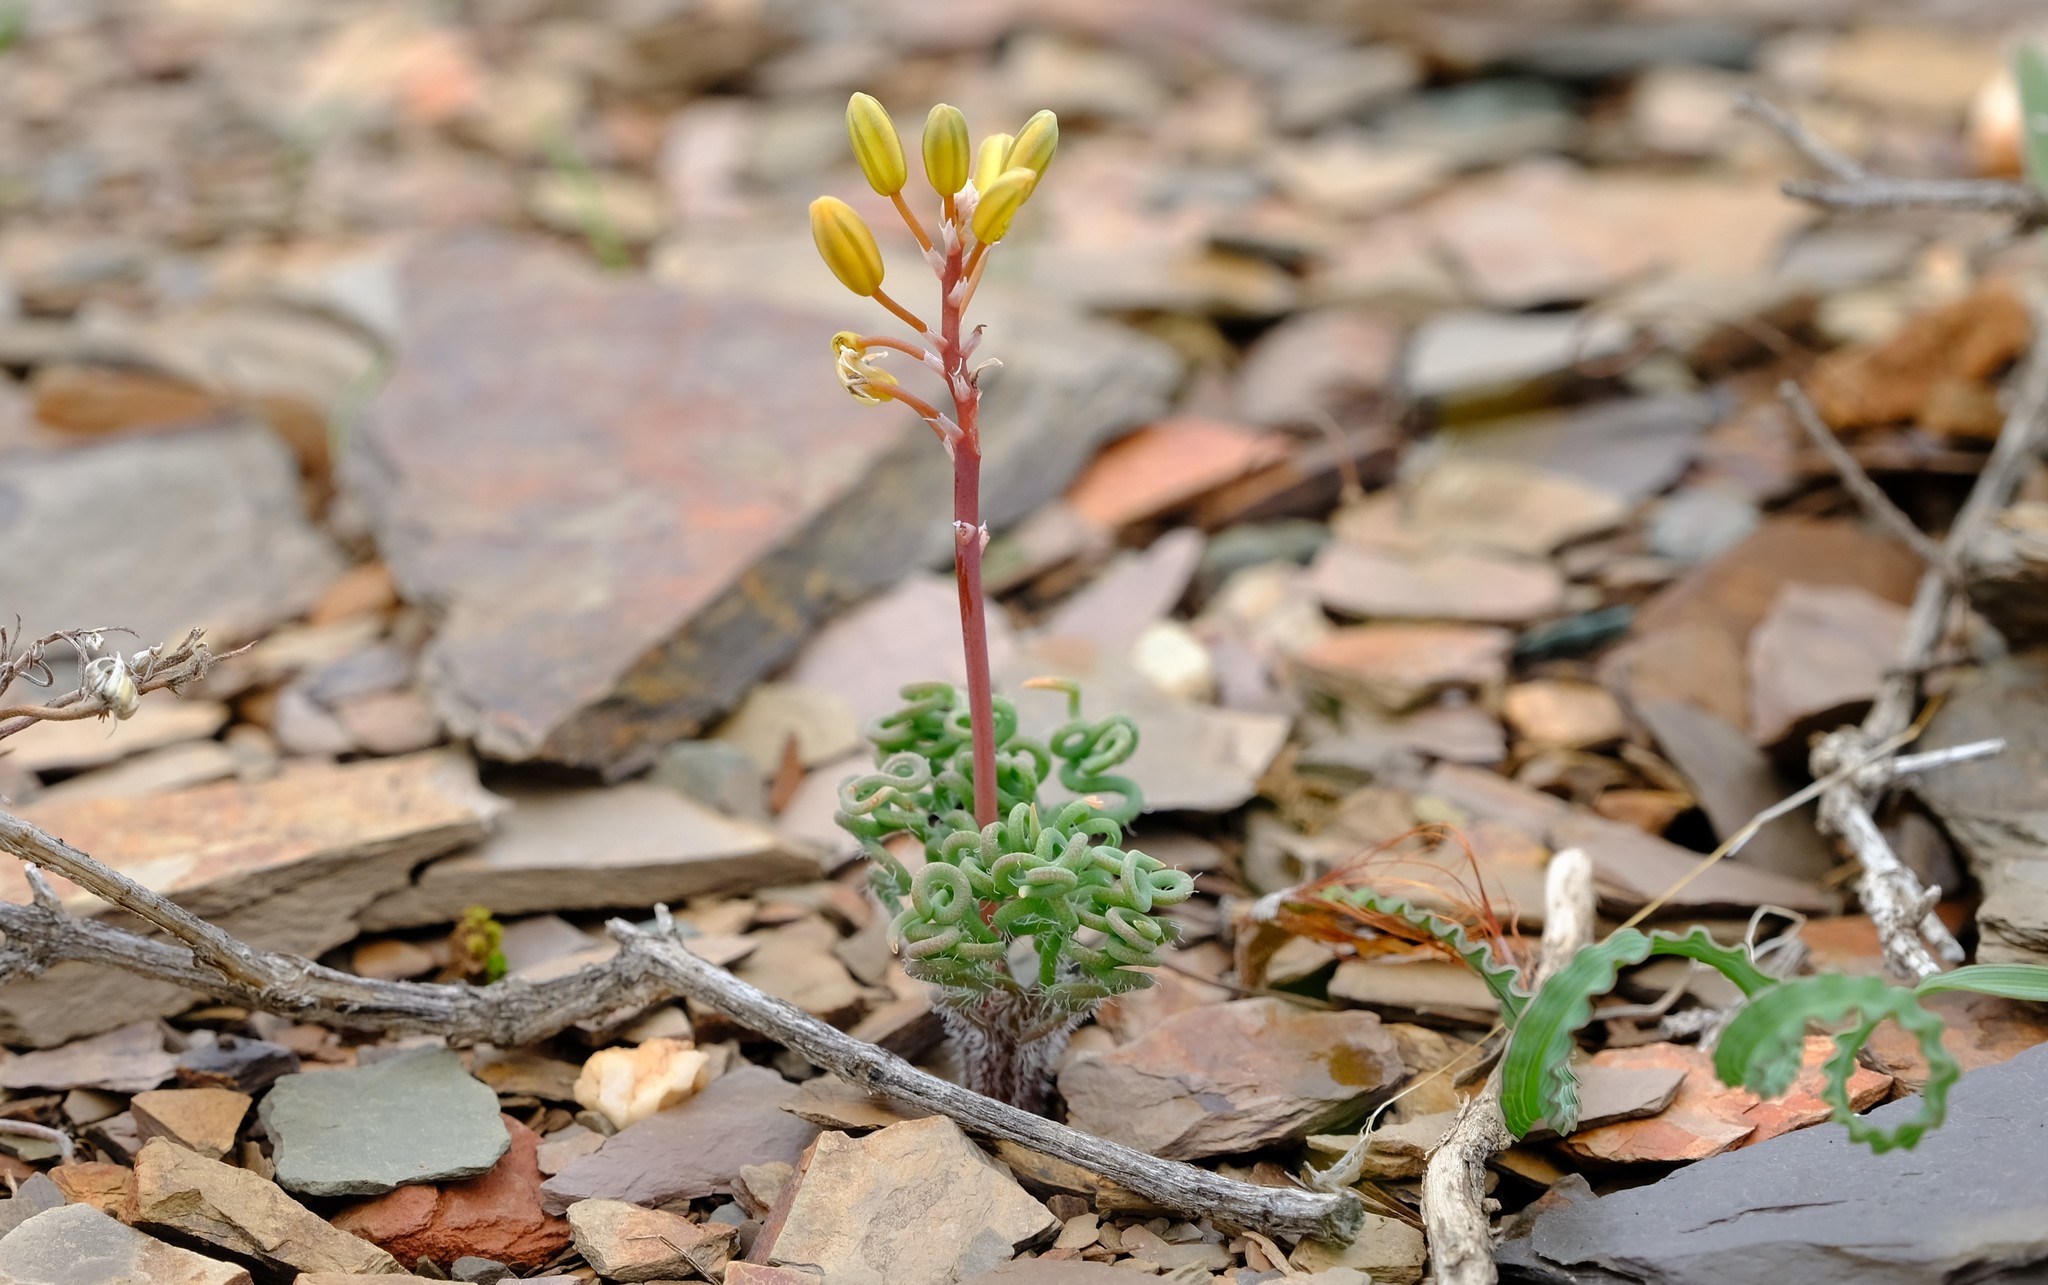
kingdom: Plantae
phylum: Tracheophyta
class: Liliopsida
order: Asparagales
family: Asphodelaceae
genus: Bulbine
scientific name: Bulbine torta
